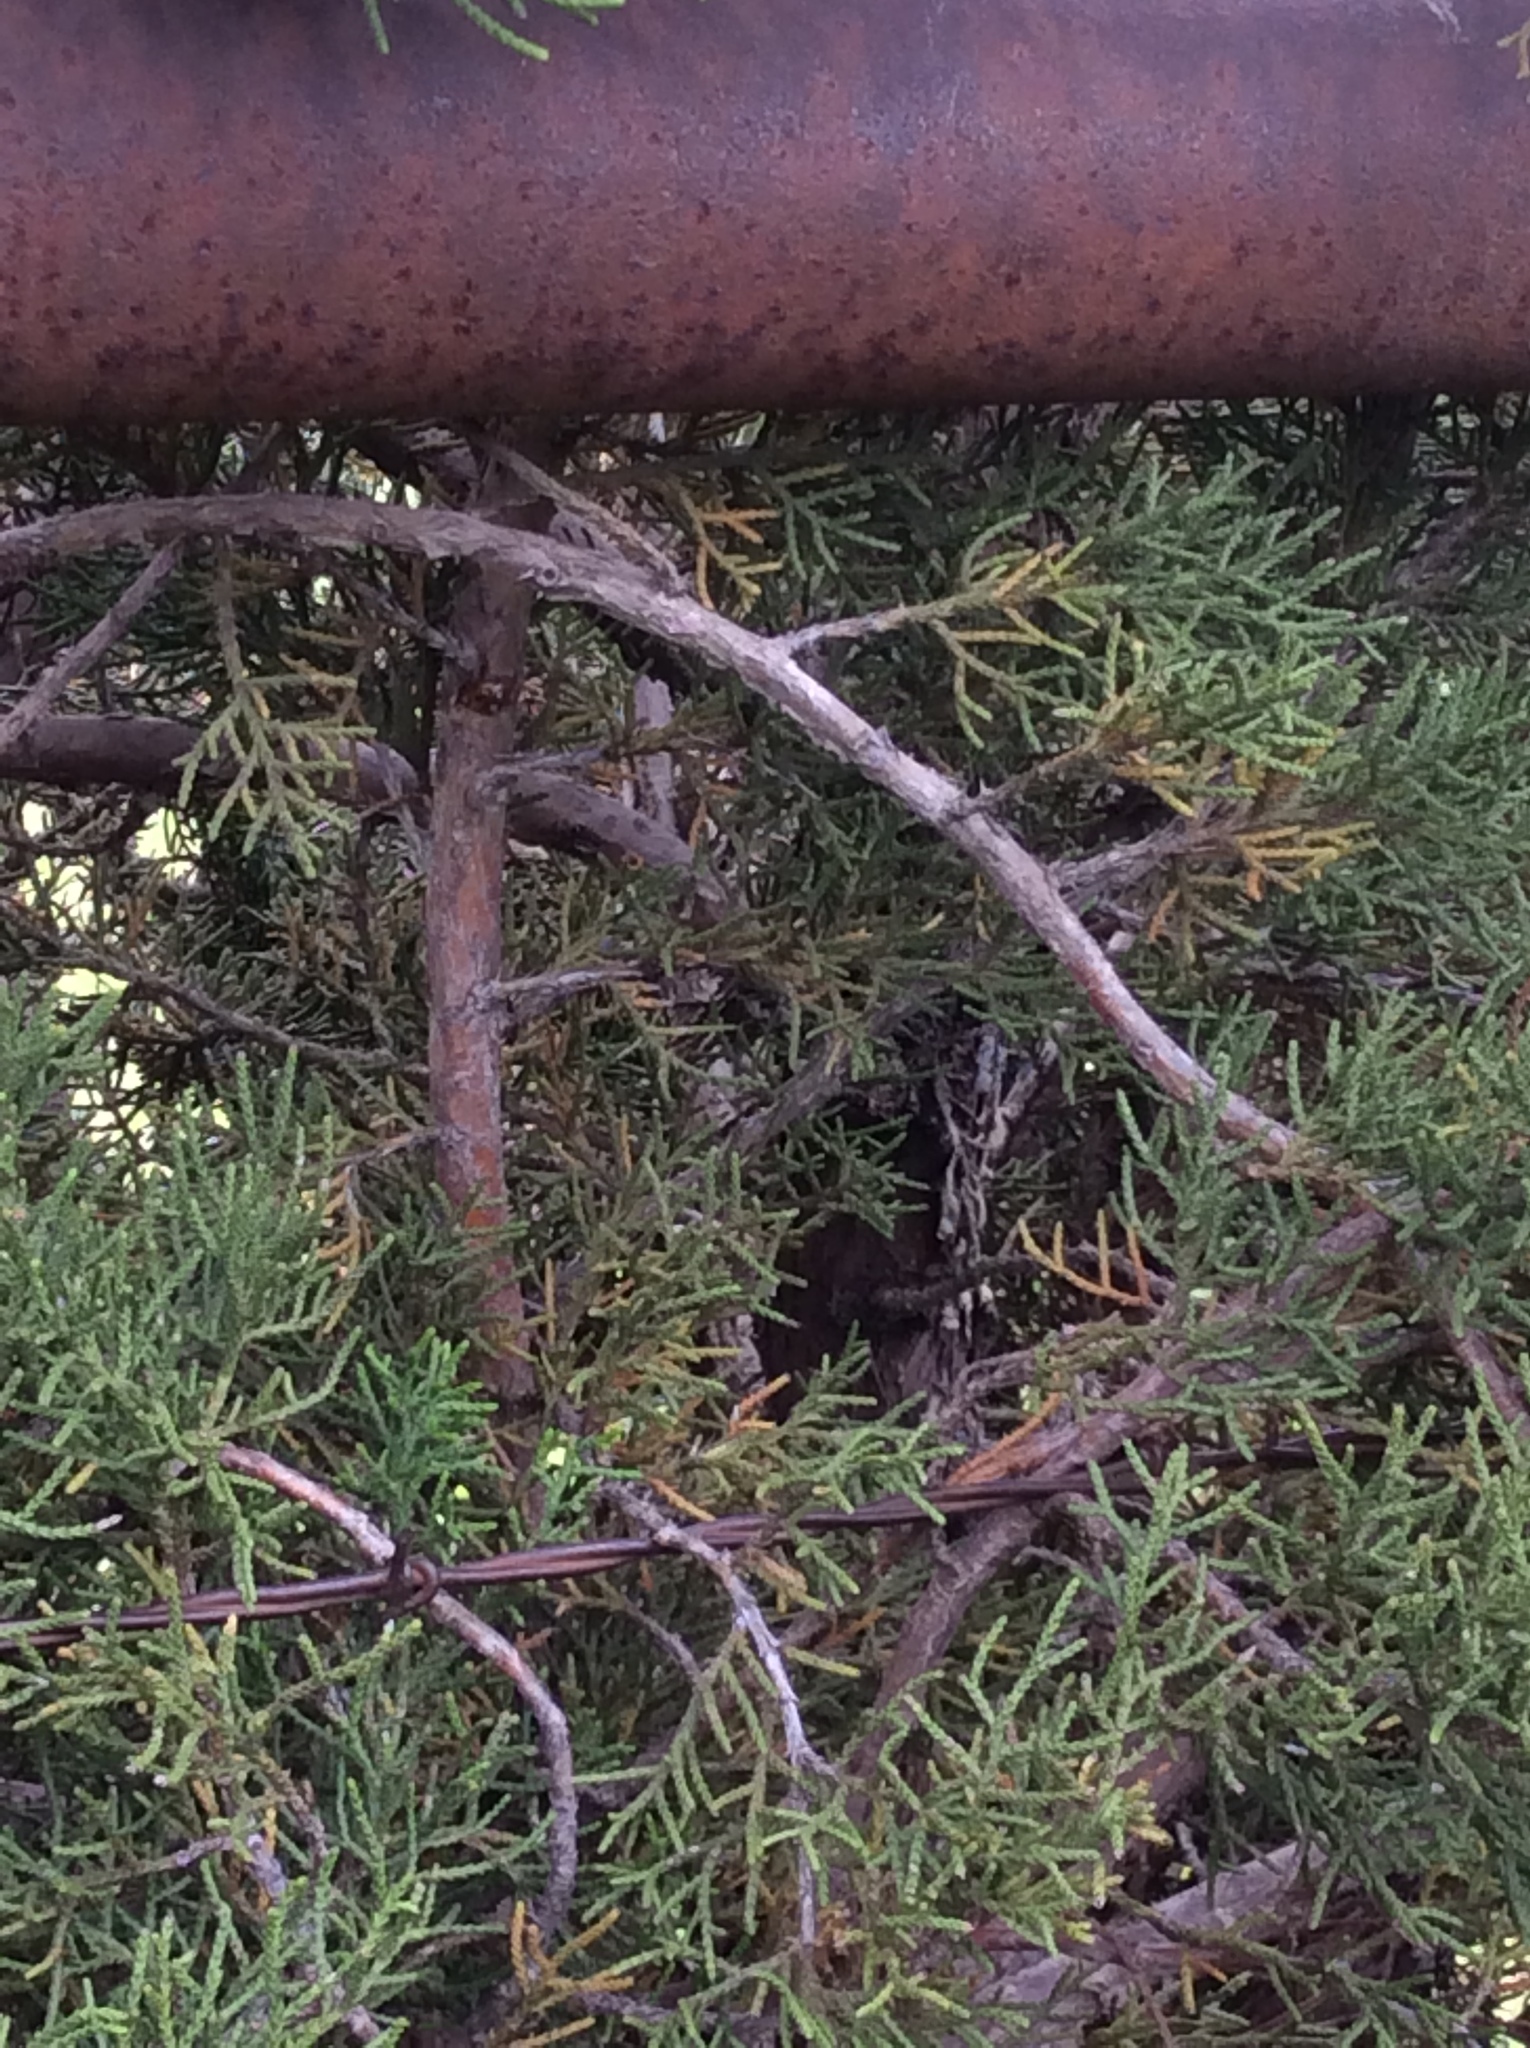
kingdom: Plantae
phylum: Tracheophyta
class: Pinopsida
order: Pinales
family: Cupressaceae
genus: Juniperus
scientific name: Juniperus virginiana
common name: Red juniper
